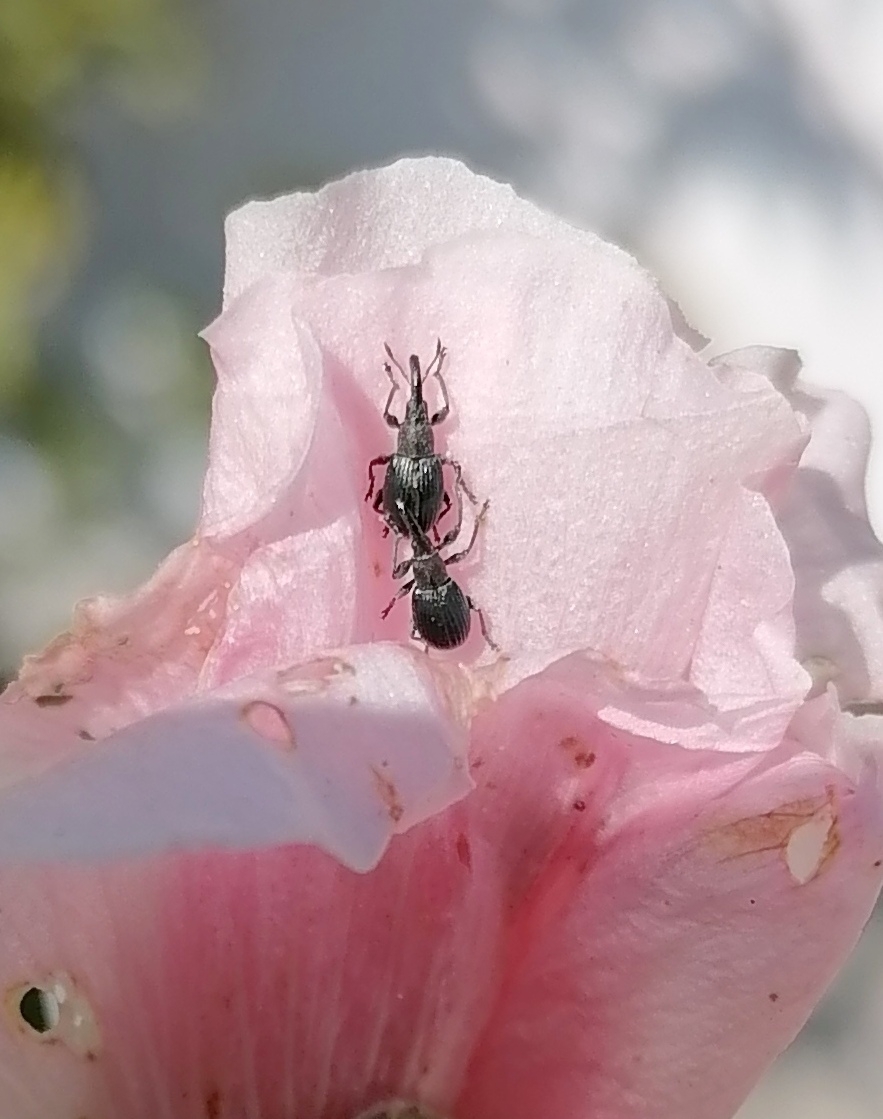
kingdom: Animalia
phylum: Arthropoda
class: Insecta
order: Coleoptera
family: Apionidae
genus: Aspidapion
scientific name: Aspidapion validum
